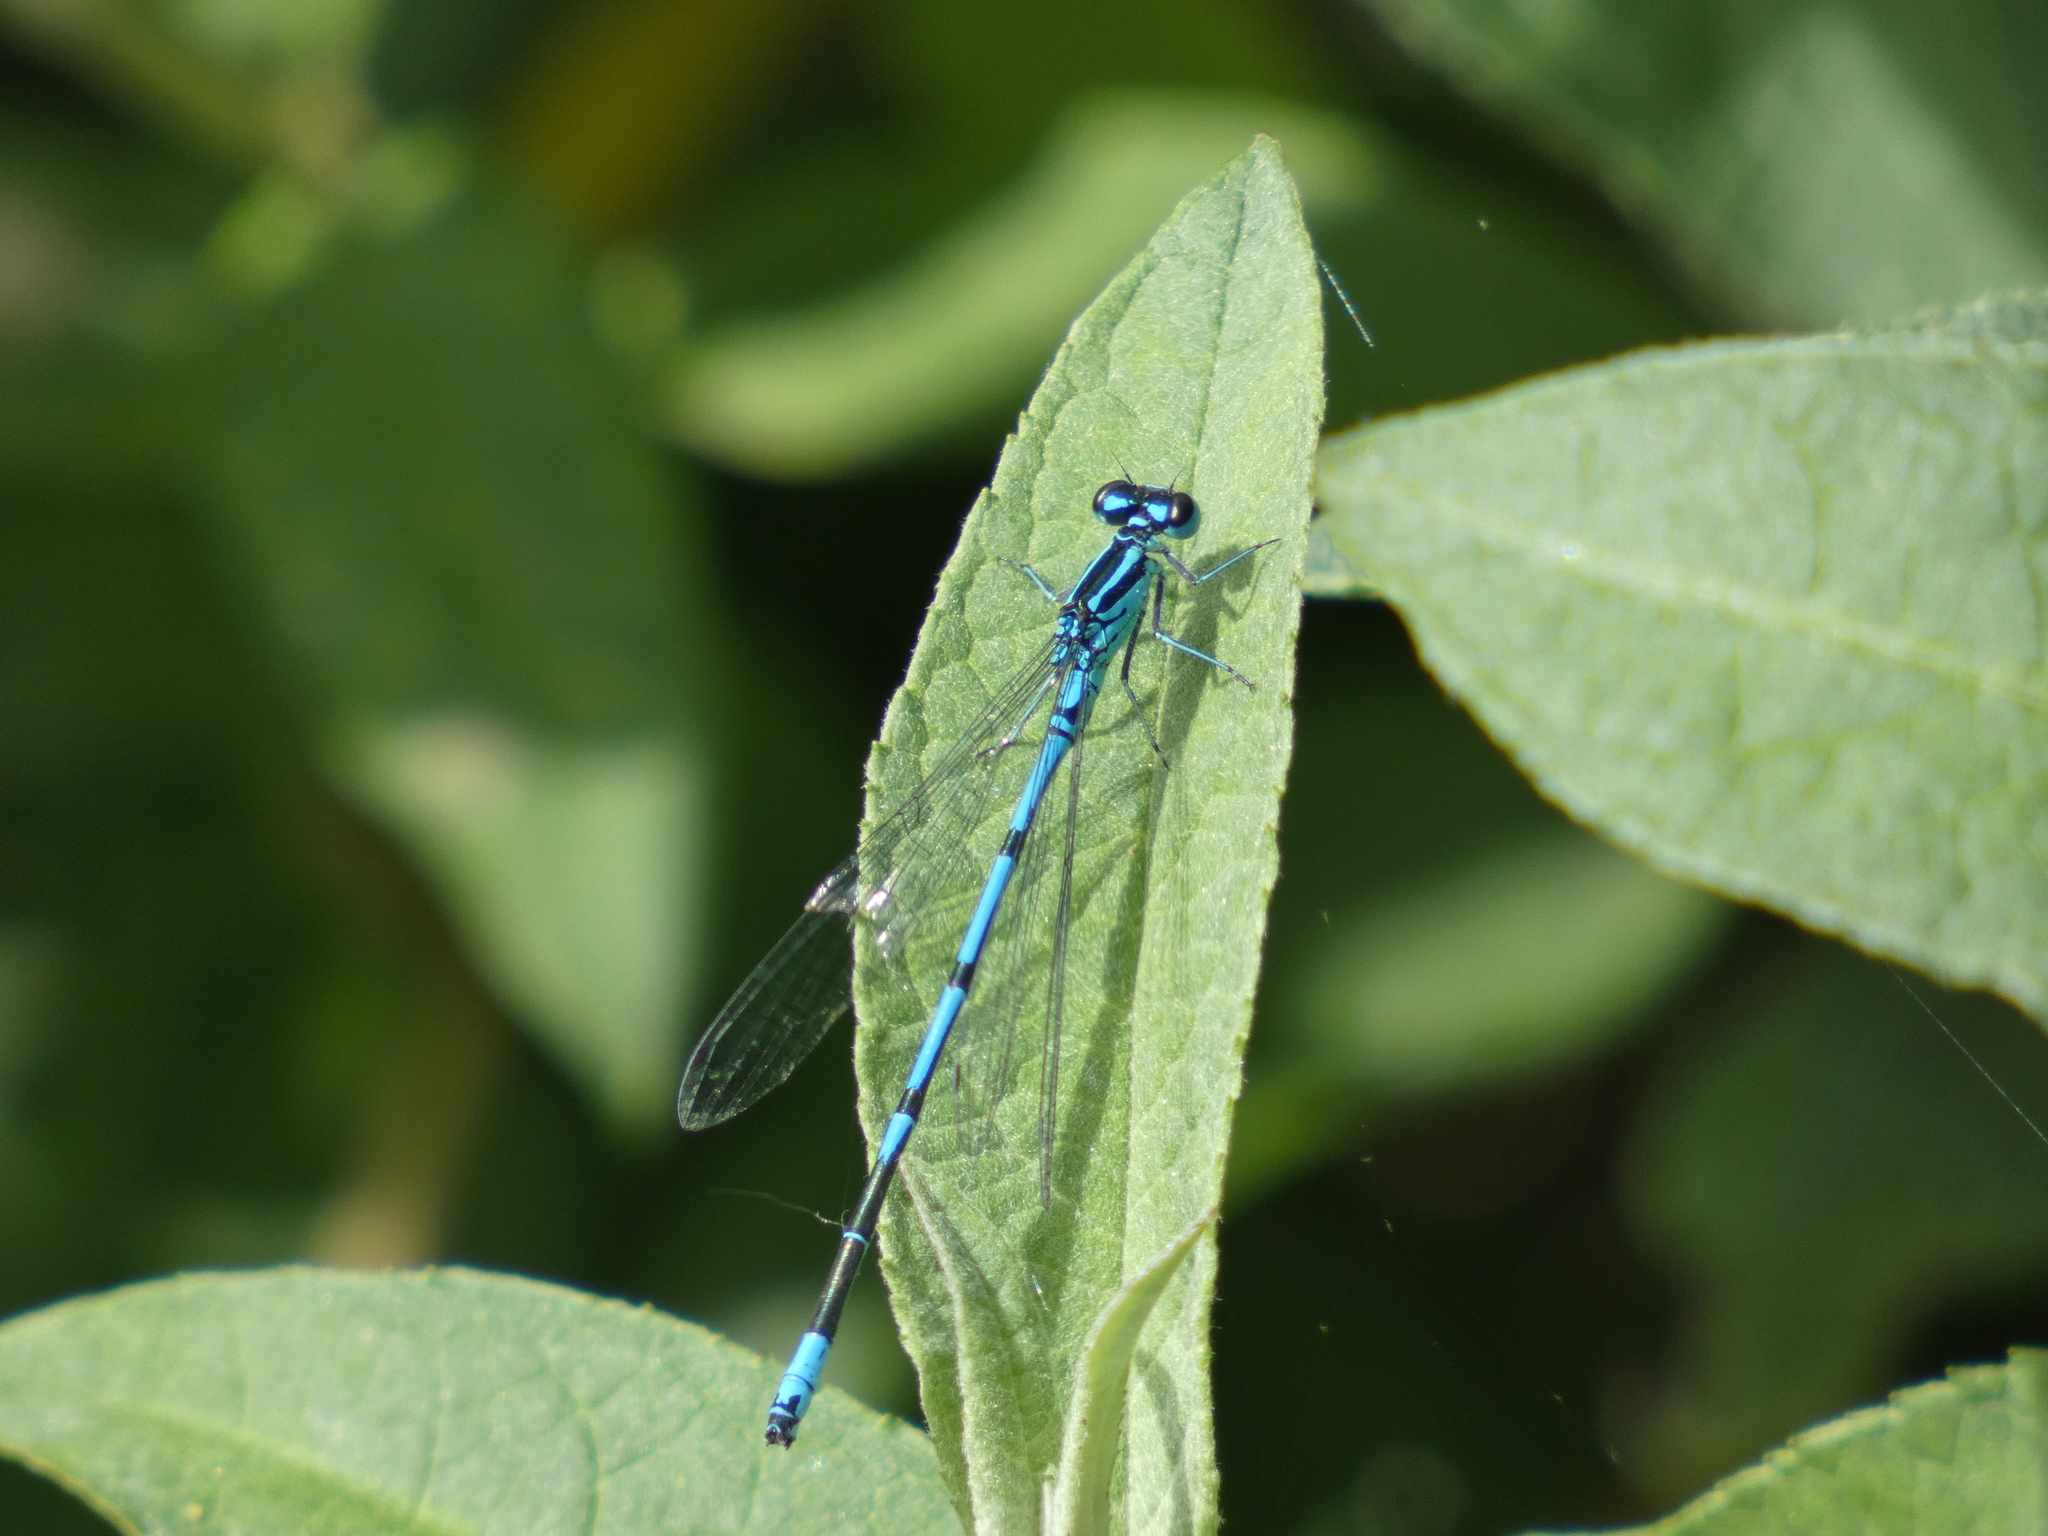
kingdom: Animalia
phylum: Arthropoda
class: Insecta
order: Odonata
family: Coenagrionidae
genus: Coenagrion
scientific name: Coenagrion puella
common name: Azure damselfly
